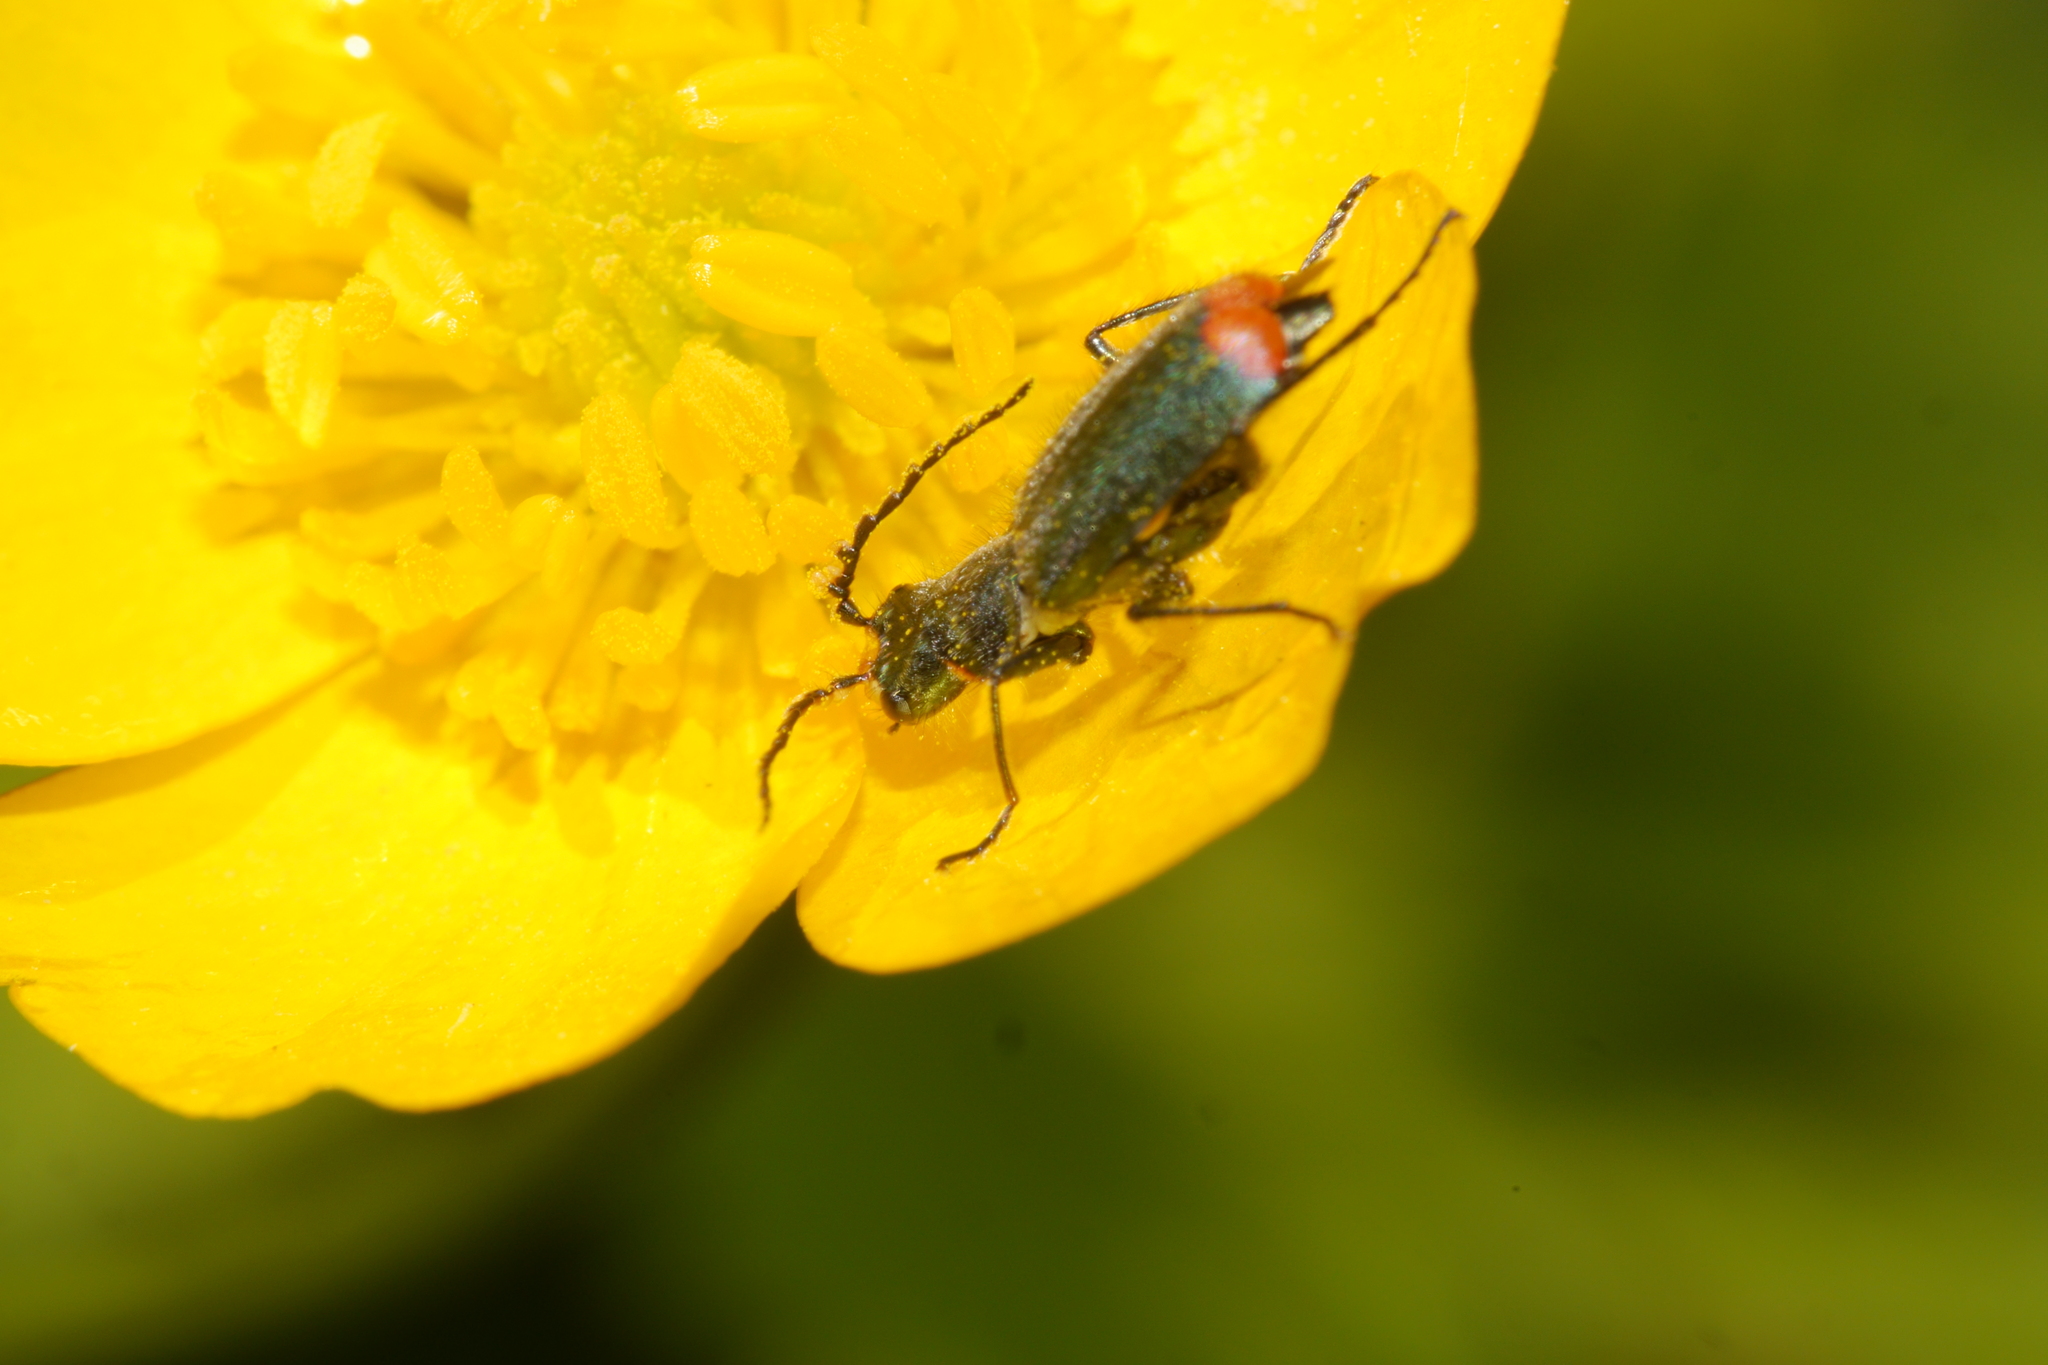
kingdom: Animalia
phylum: Arthropoda
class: Insecta
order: Coleoptera
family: Melyridae
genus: Malachius
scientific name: Malachius bipustulatus
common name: Malachite beetle
